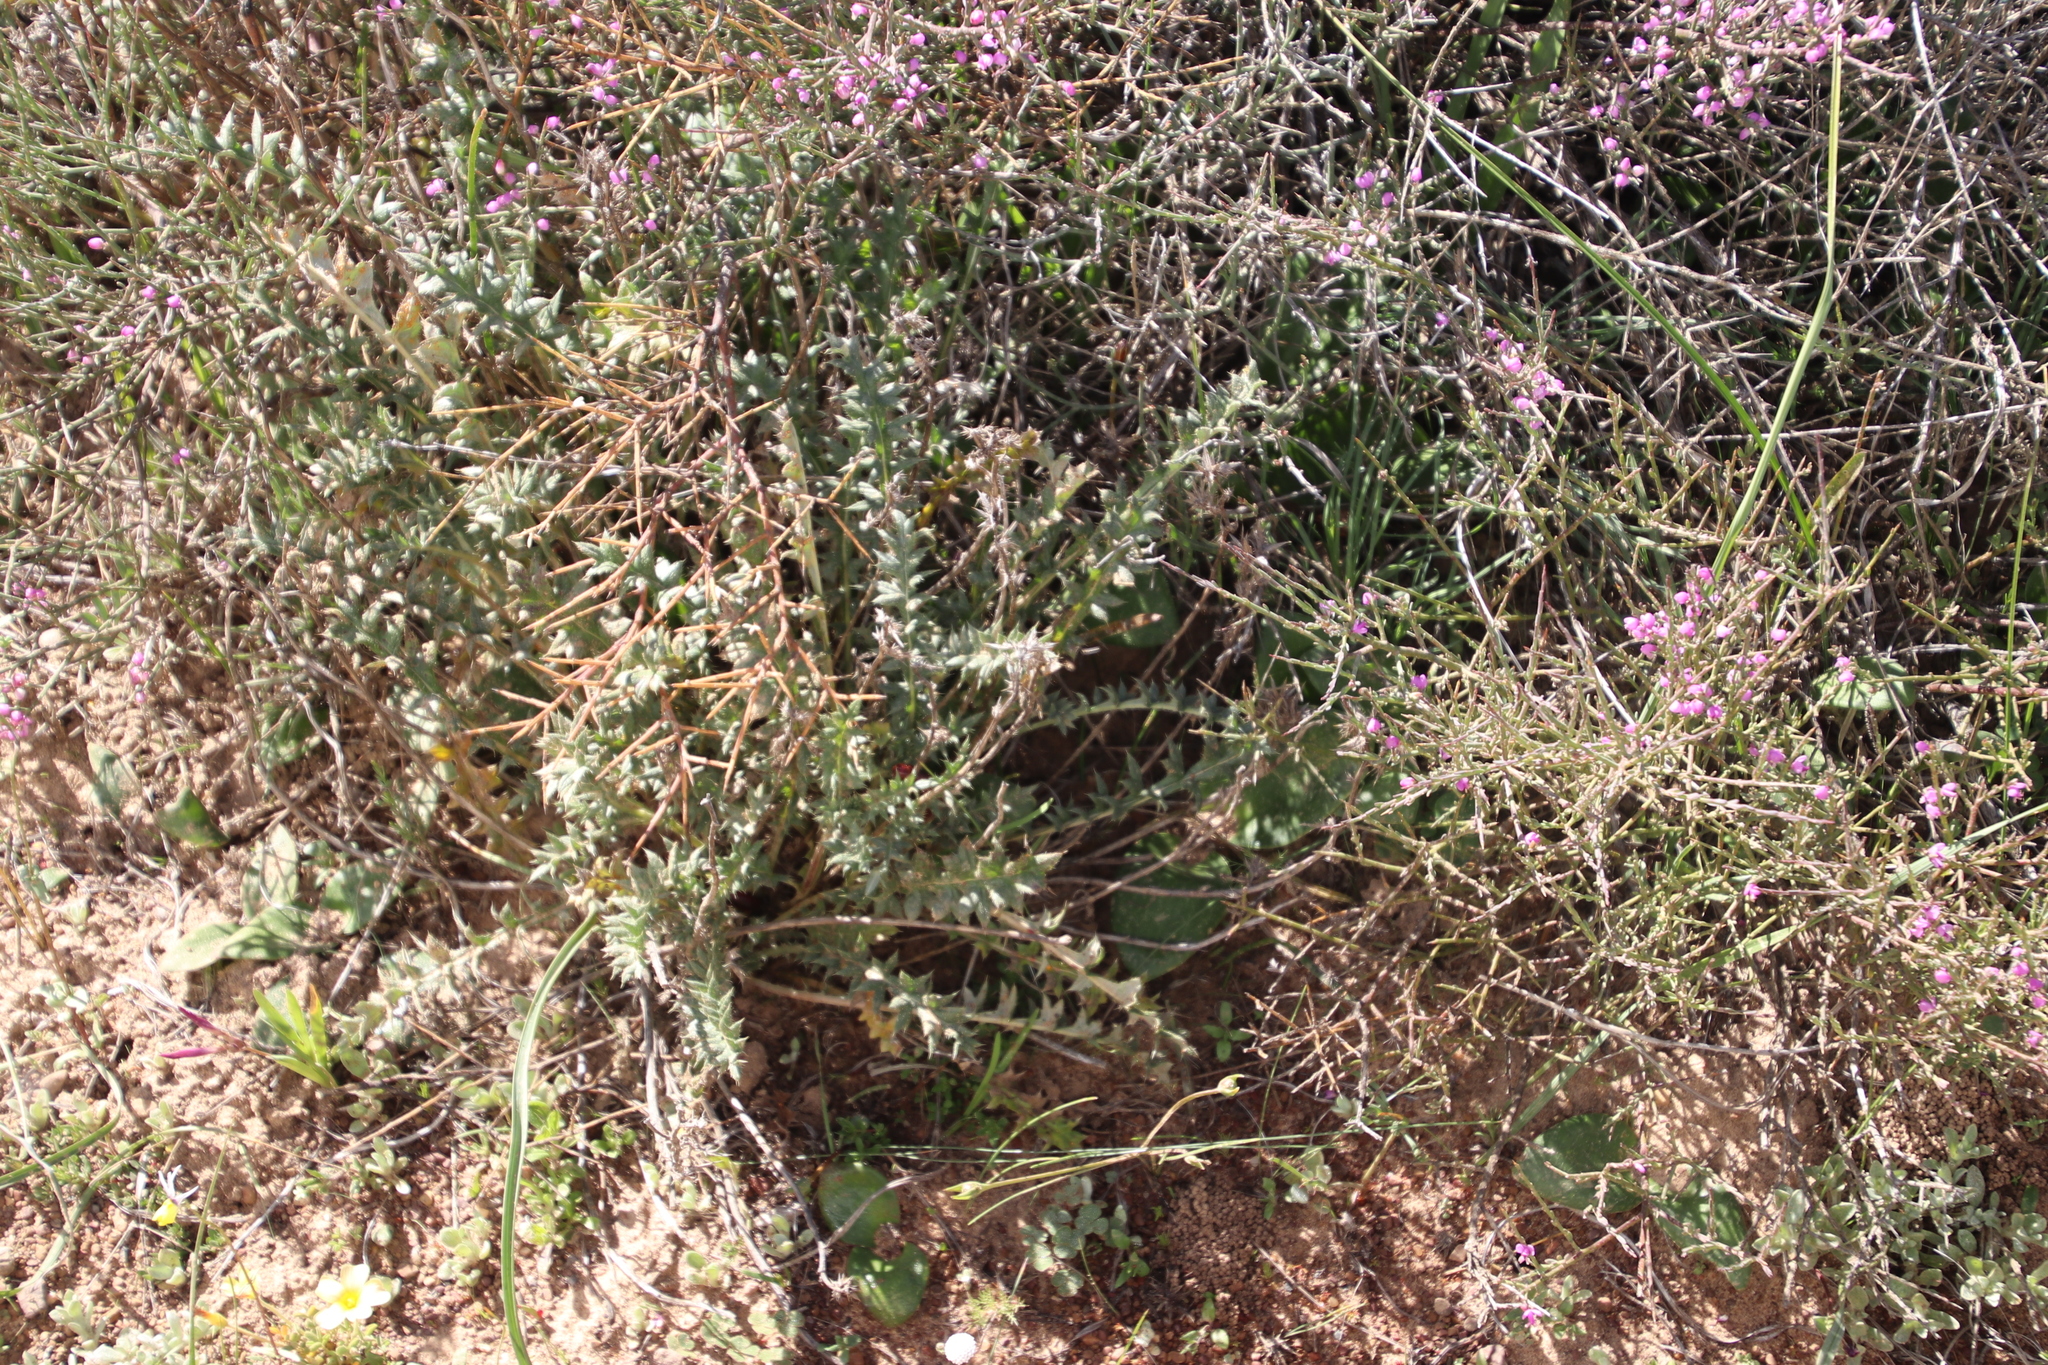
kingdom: Plantae
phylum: Tracheophyta
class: Magnoliopsida
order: Asterales
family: Asteraceae
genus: Berkheya
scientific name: Berkheya pinnatifida
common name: Lobed african thistle
